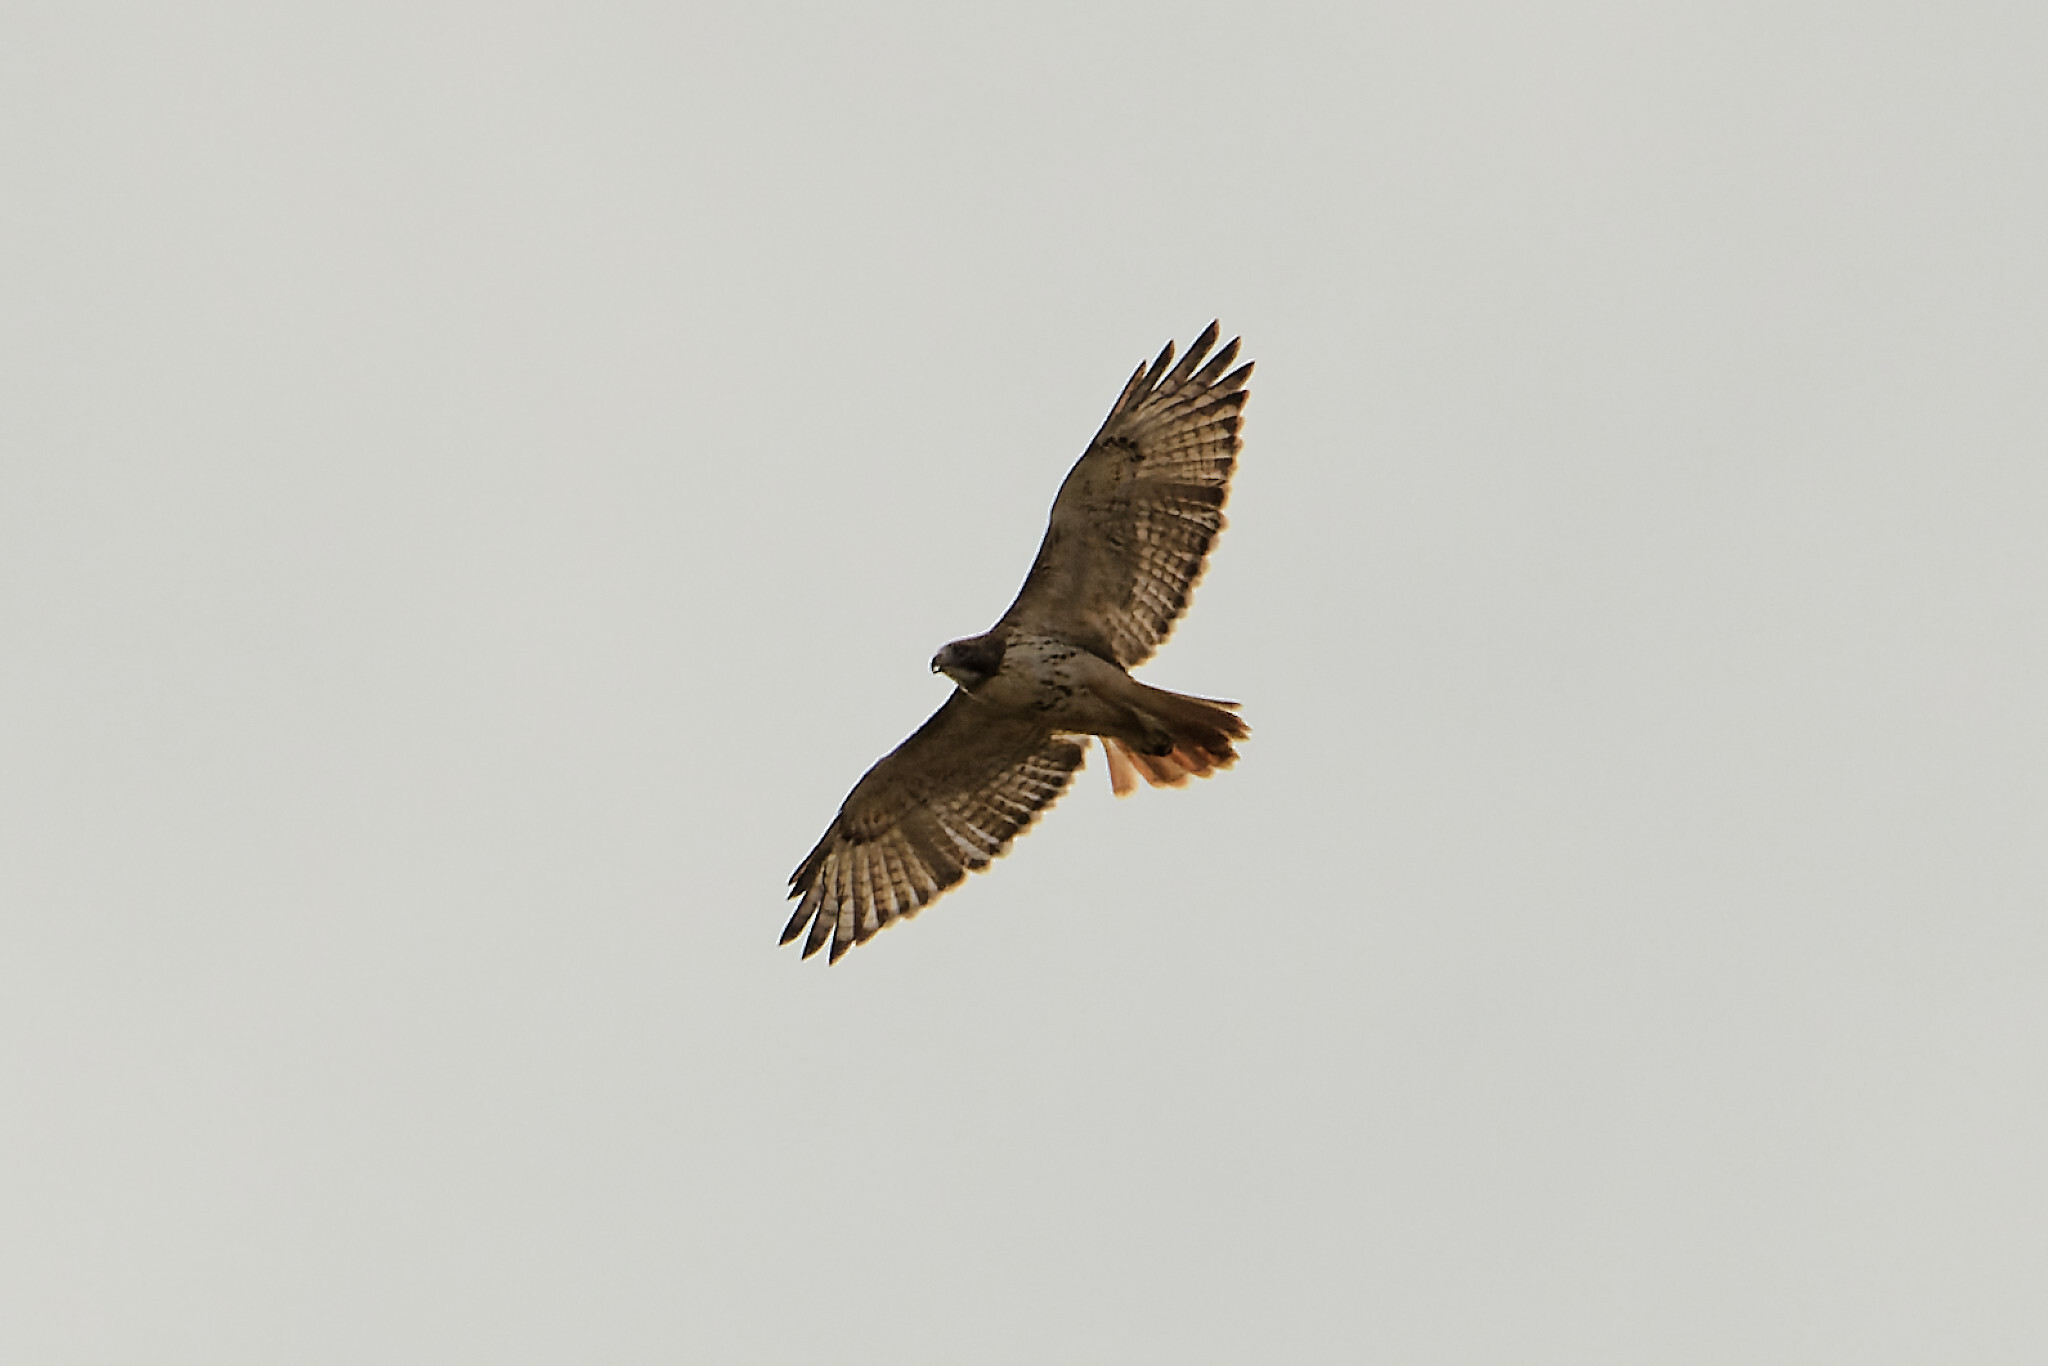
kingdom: Animalia
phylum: Chordata
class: Aves
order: Accipitriformes
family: Accipitridae
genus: Buteo
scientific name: Buteo jamaicensis
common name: Red-tailed hawk
